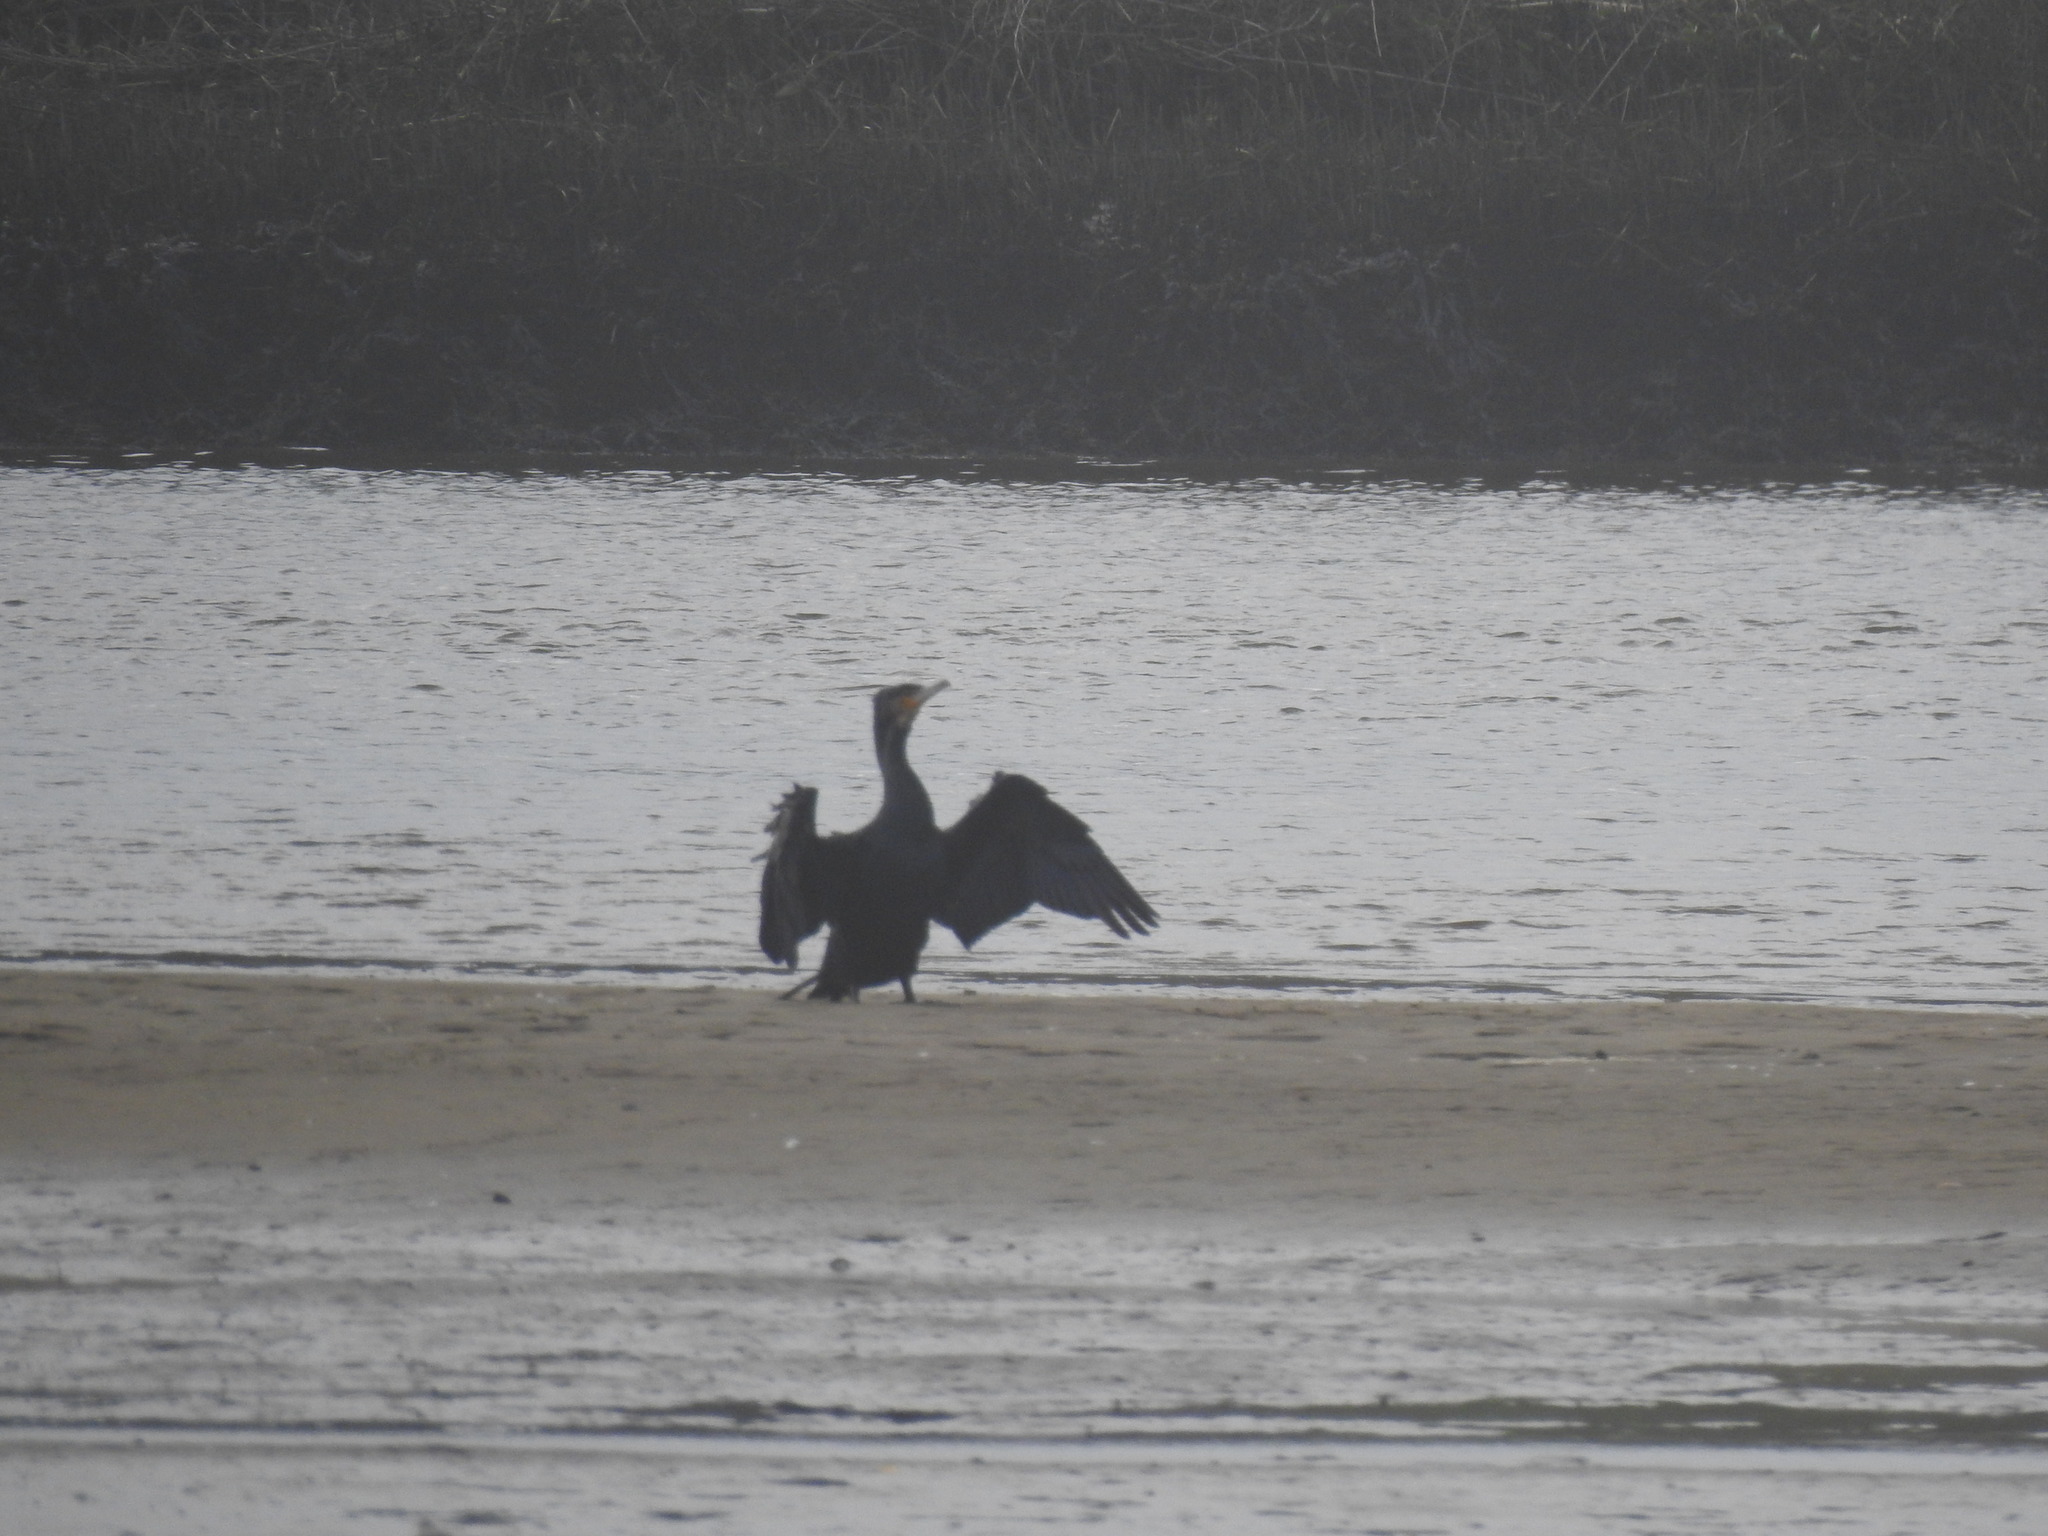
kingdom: Animalia
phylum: Chordata
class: Aves
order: Suliformes
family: Phalacrocoracidae
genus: Phalacrocorax
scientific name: Phalacrocorax carbo
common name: Great cormorant
